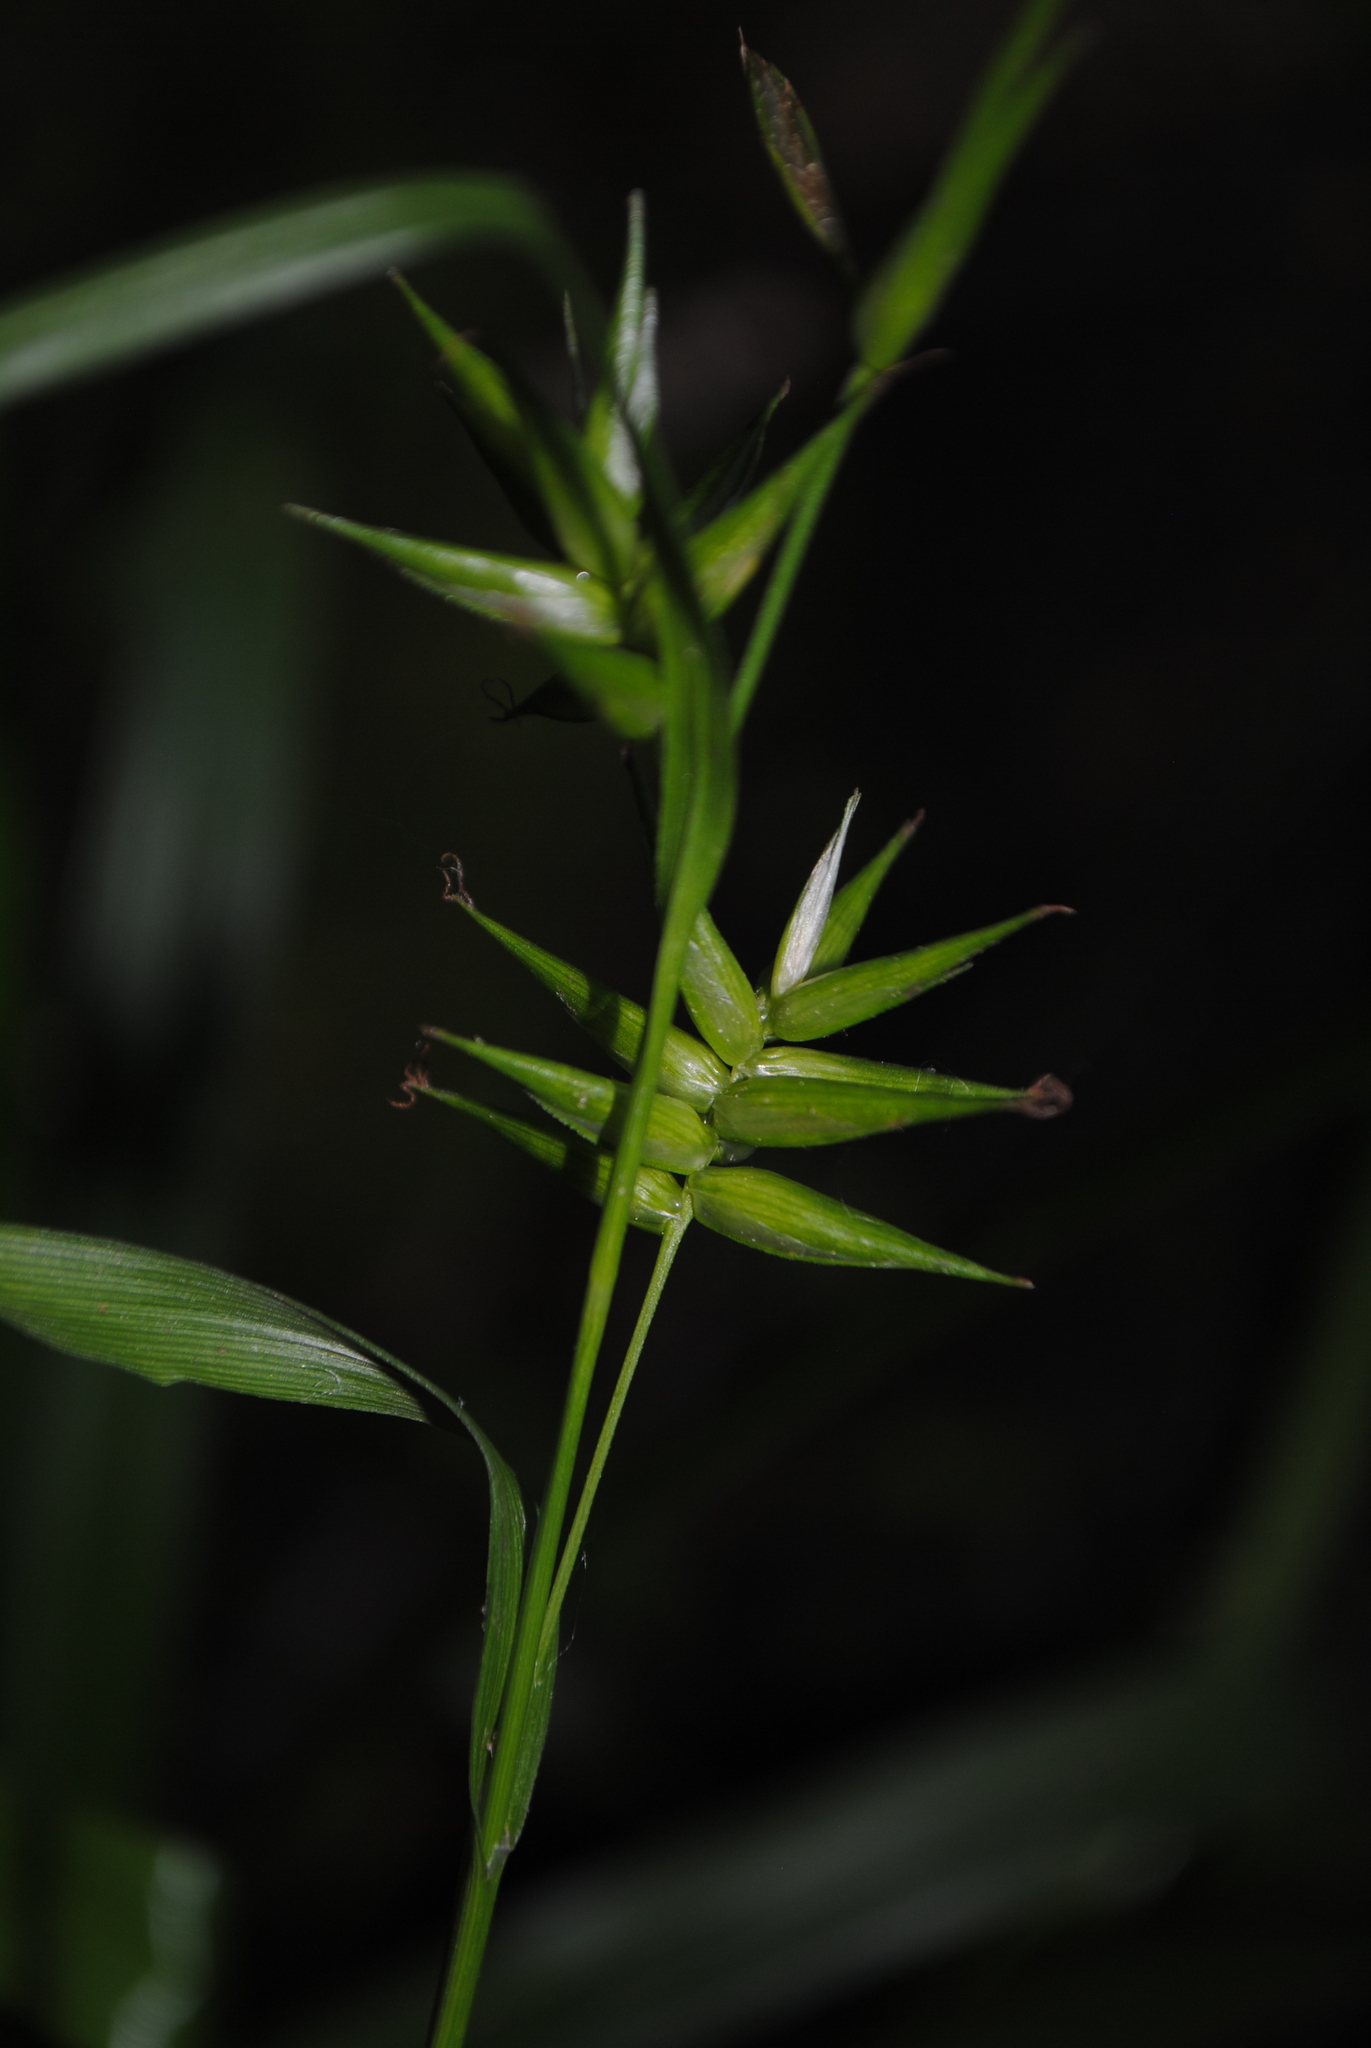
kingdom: Plantae
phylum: Tracheophyta
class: Liliopsida
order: Poales
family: Cyperaceae
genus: Carex
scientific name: Carex folliculata
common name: Northern long sedge
